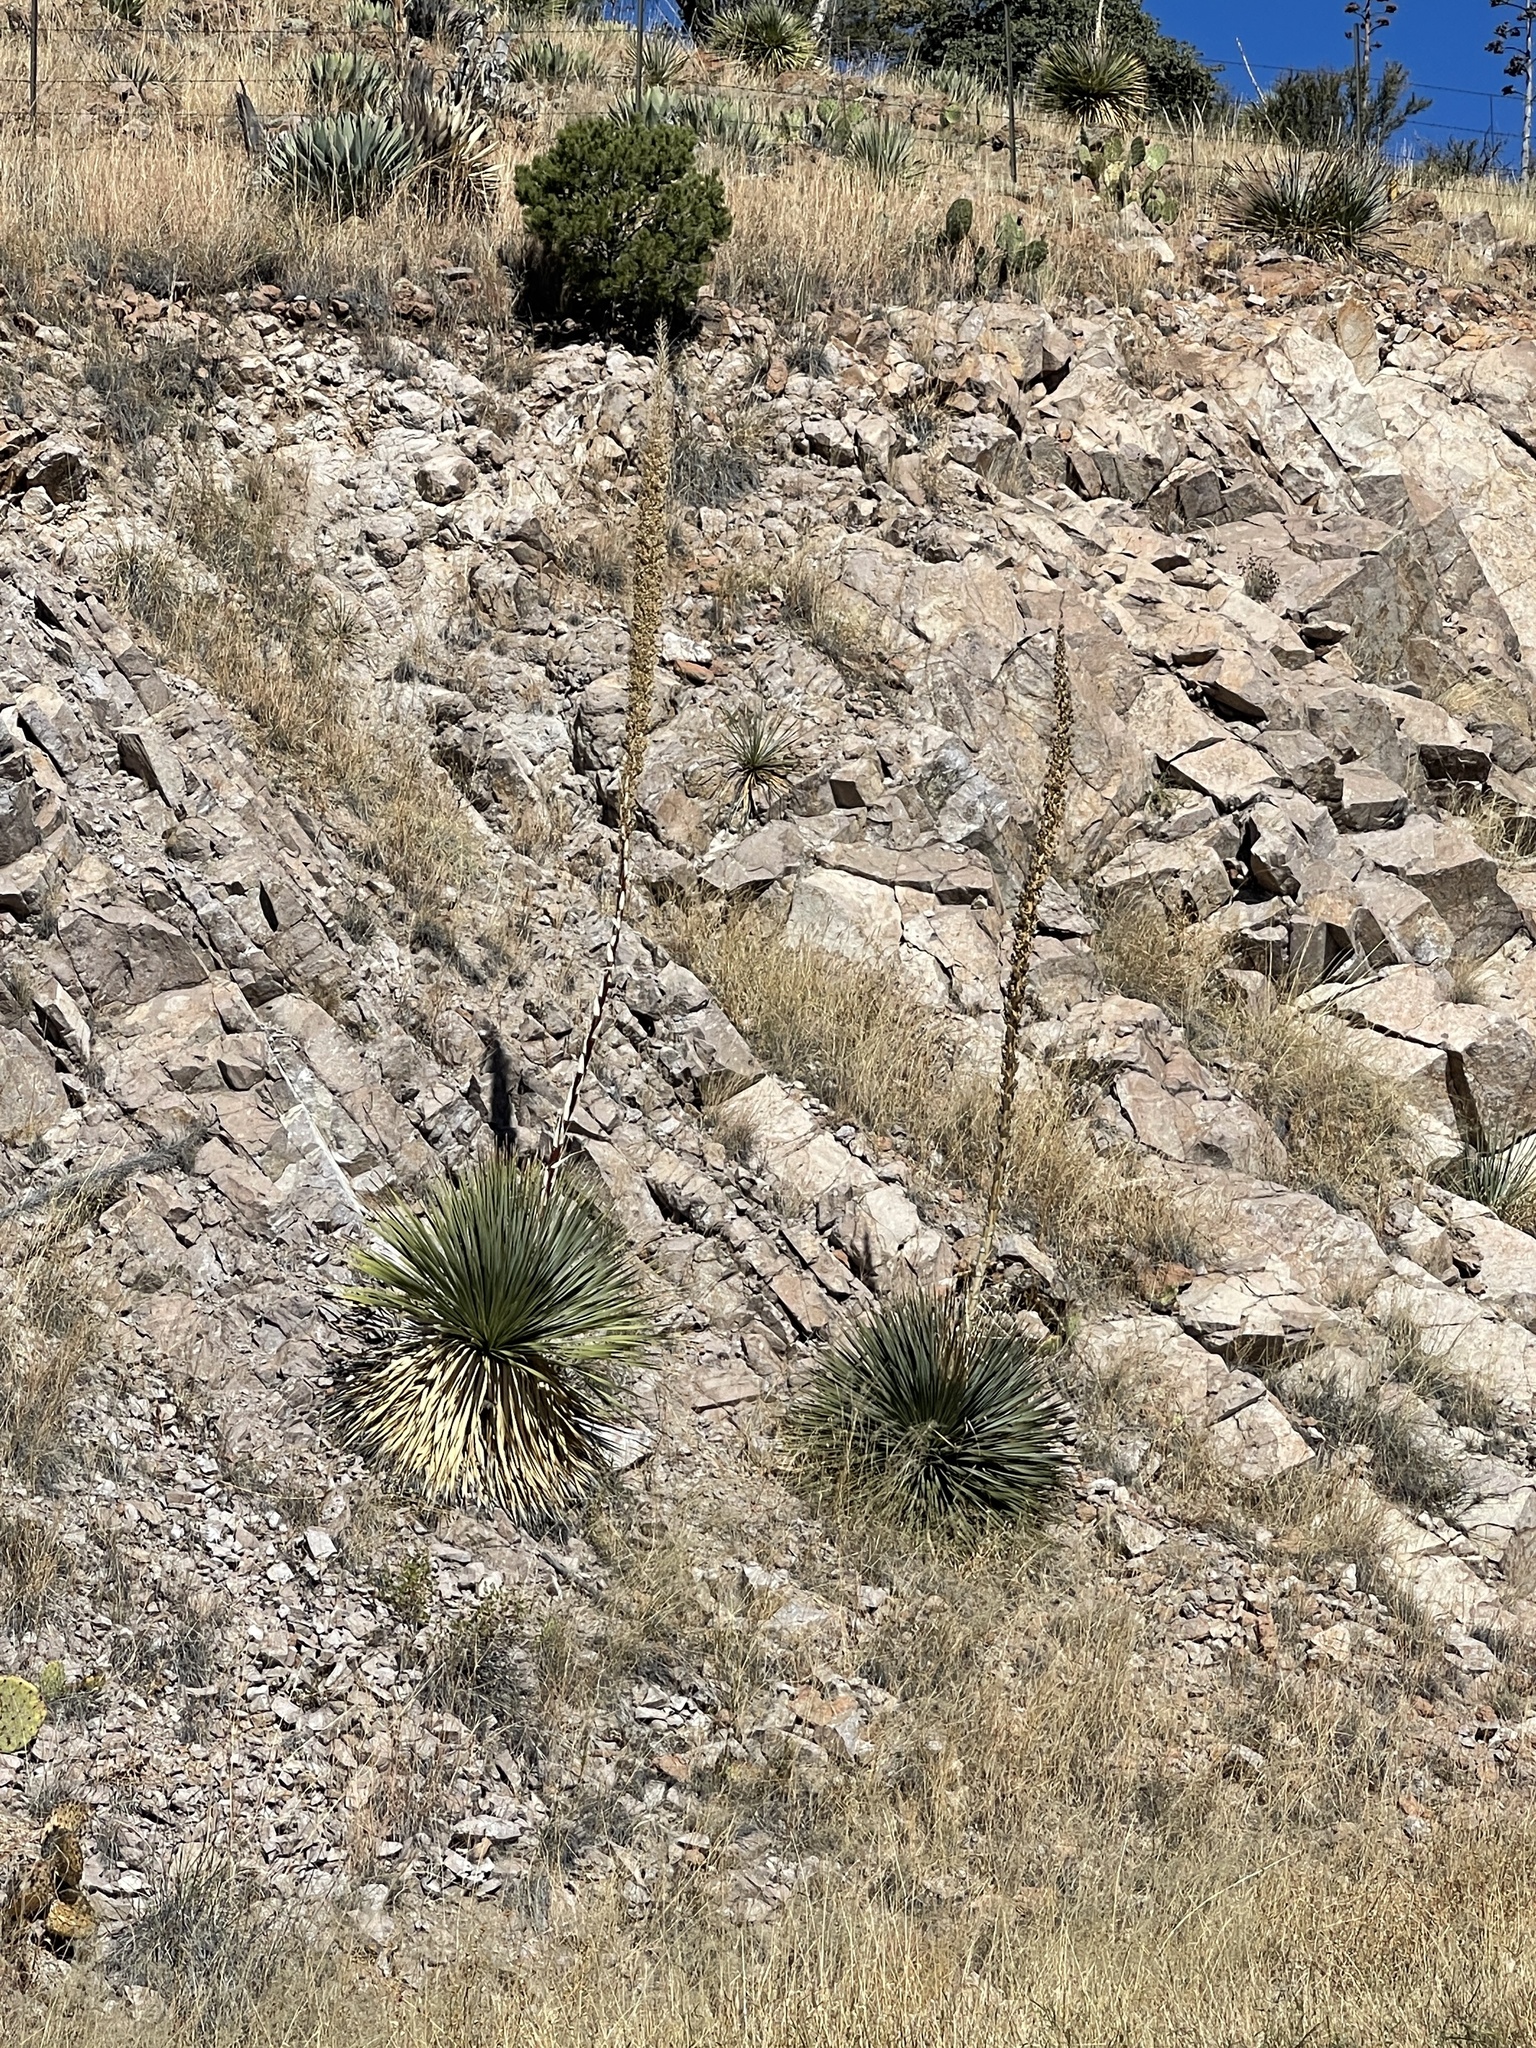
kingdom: Plantae
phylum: Tracheophyta
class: Liliopsida
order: Asparagales
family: Asparagaceae
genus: Dasylirion
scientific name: Dasylirion wheeleri
